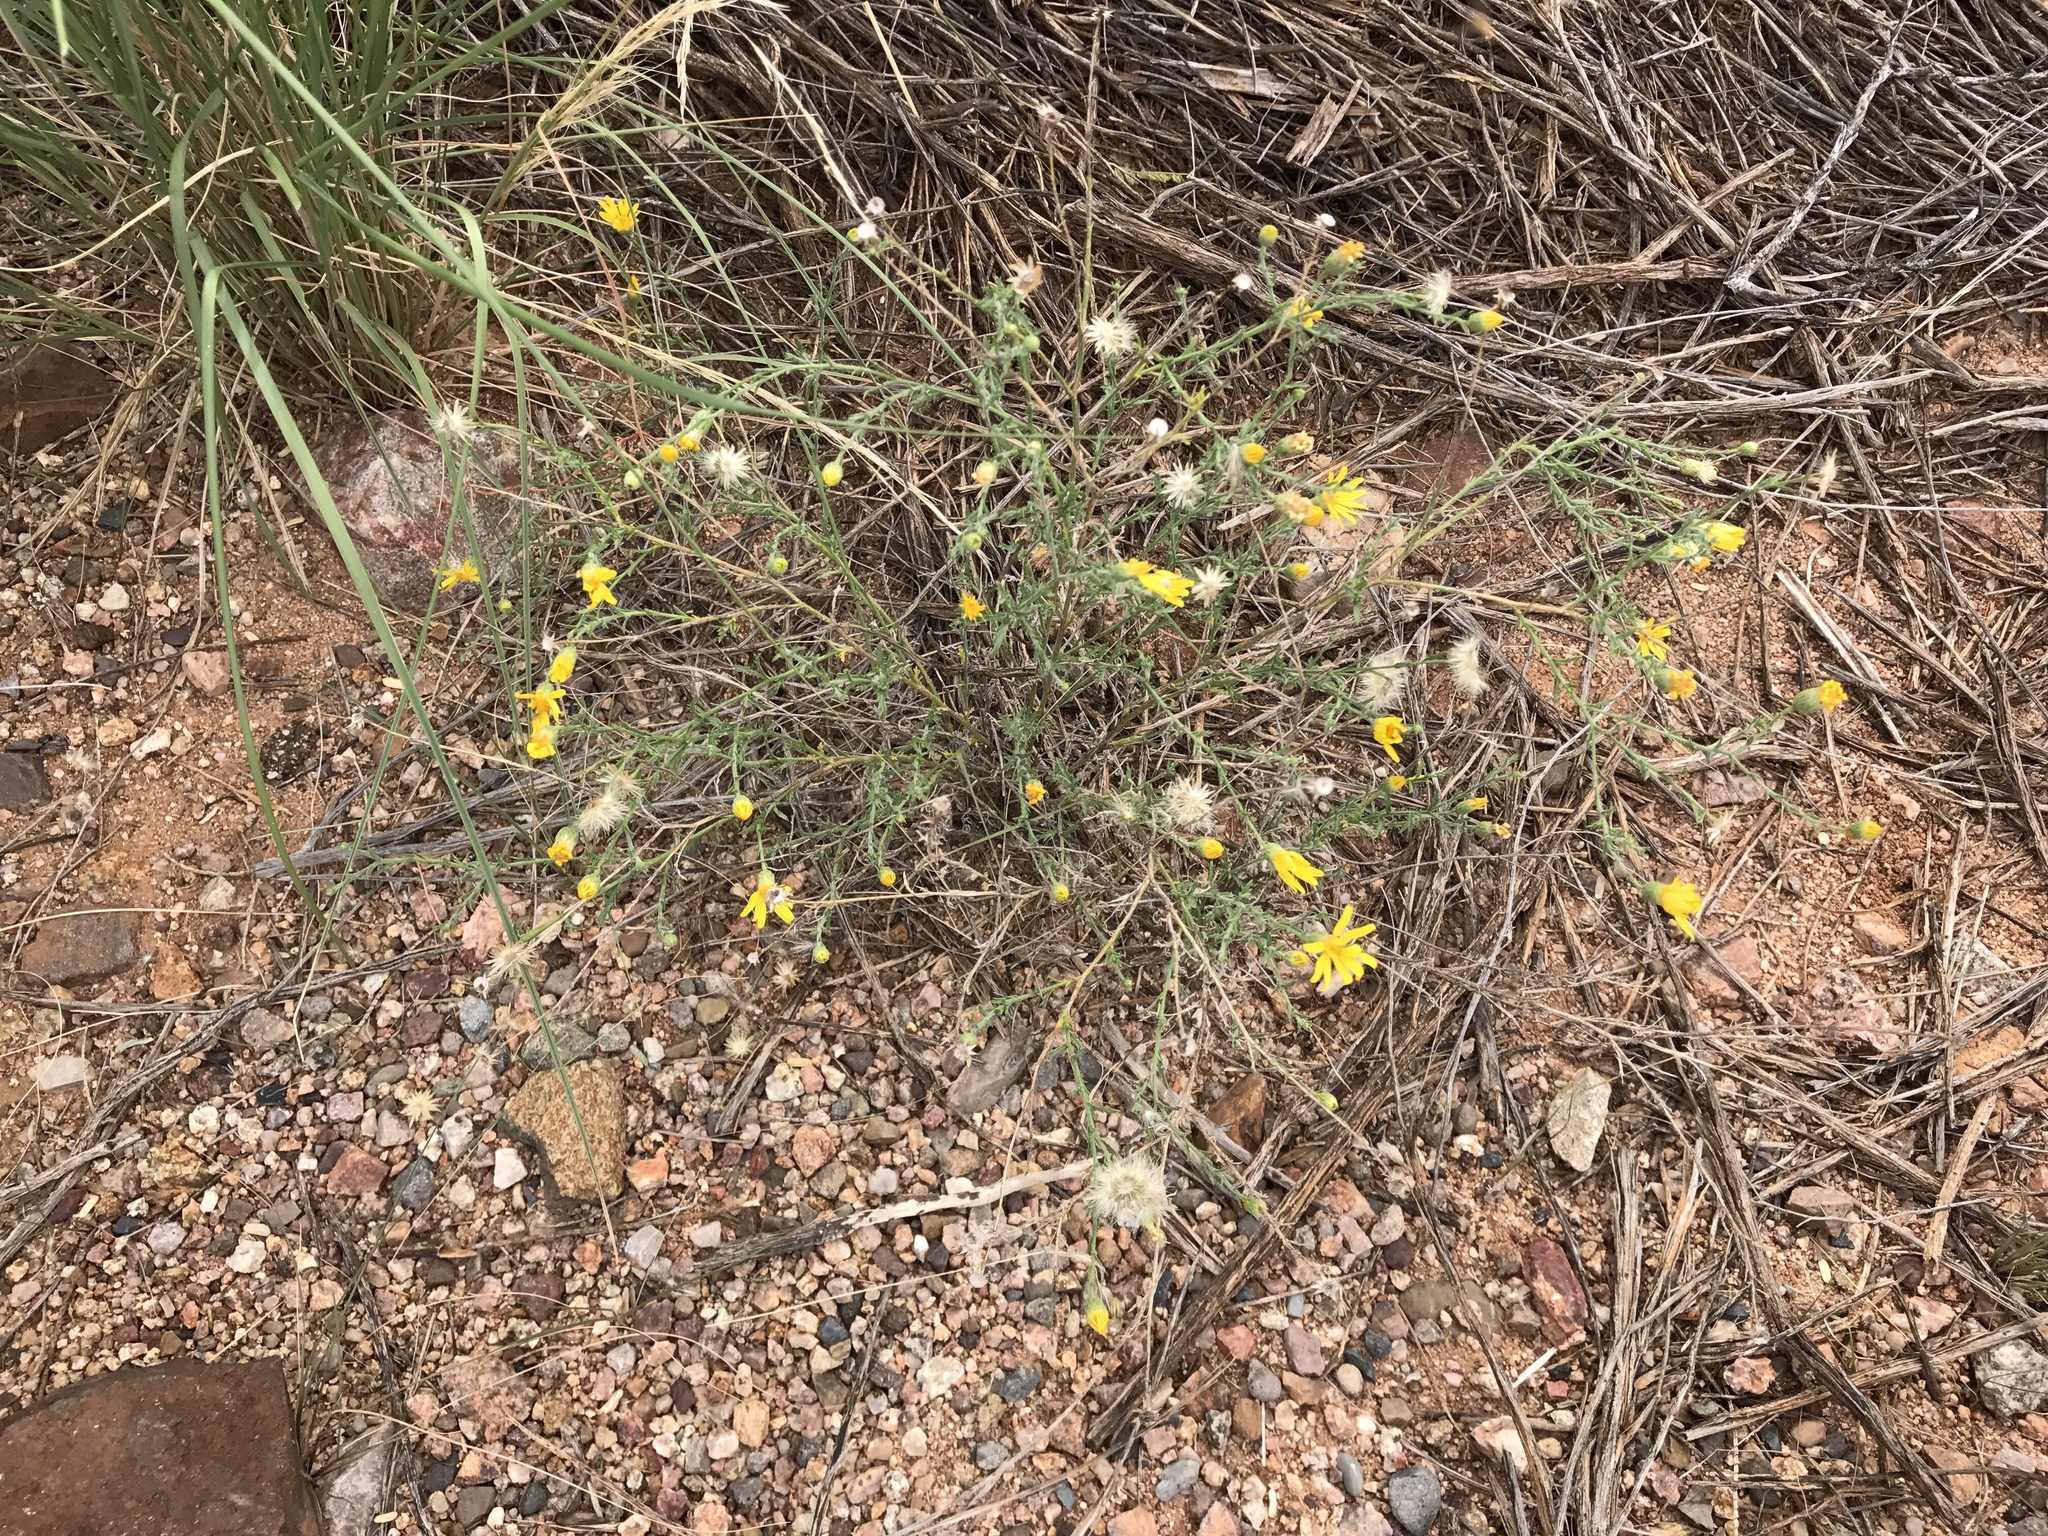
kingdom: Plantae
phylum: Tracheophyta
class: Magnoliopsida
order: Asterales
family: Asteraceae
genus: Xanthisma
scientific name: Xanthisma gracile
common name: Slender goldenweed
